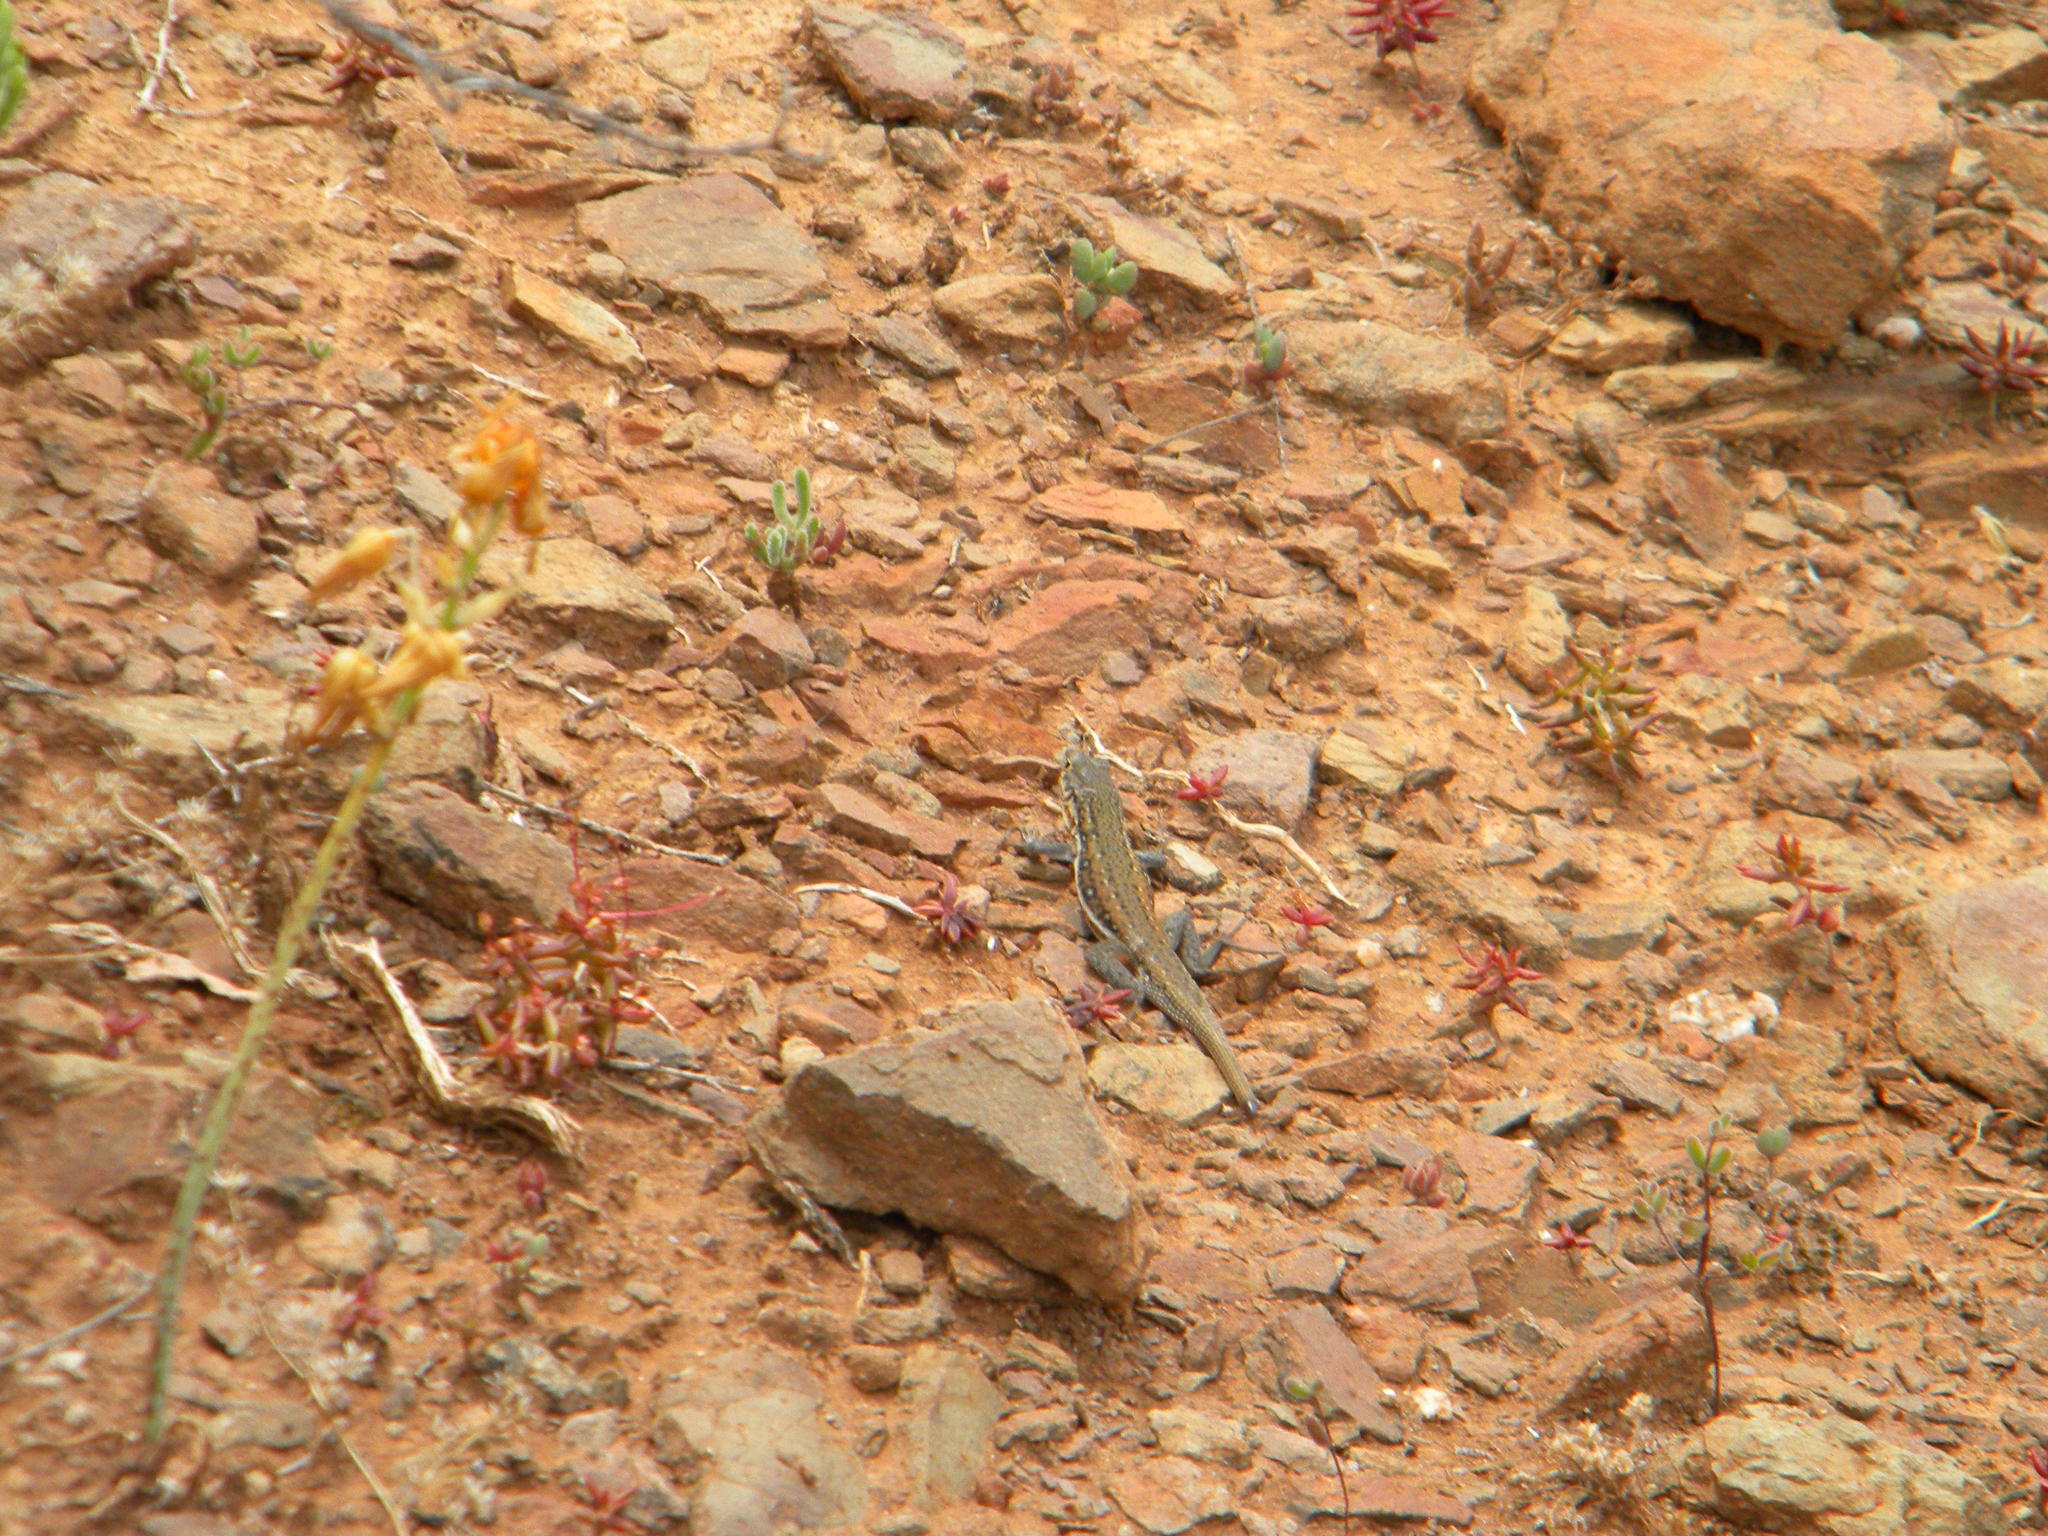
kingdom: Animalia
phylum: Chordata
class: Squamata
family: Lacertidae
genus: Pedioplanis
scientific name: Pedioplanis lineoocellata
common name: Spotted sand lizard
